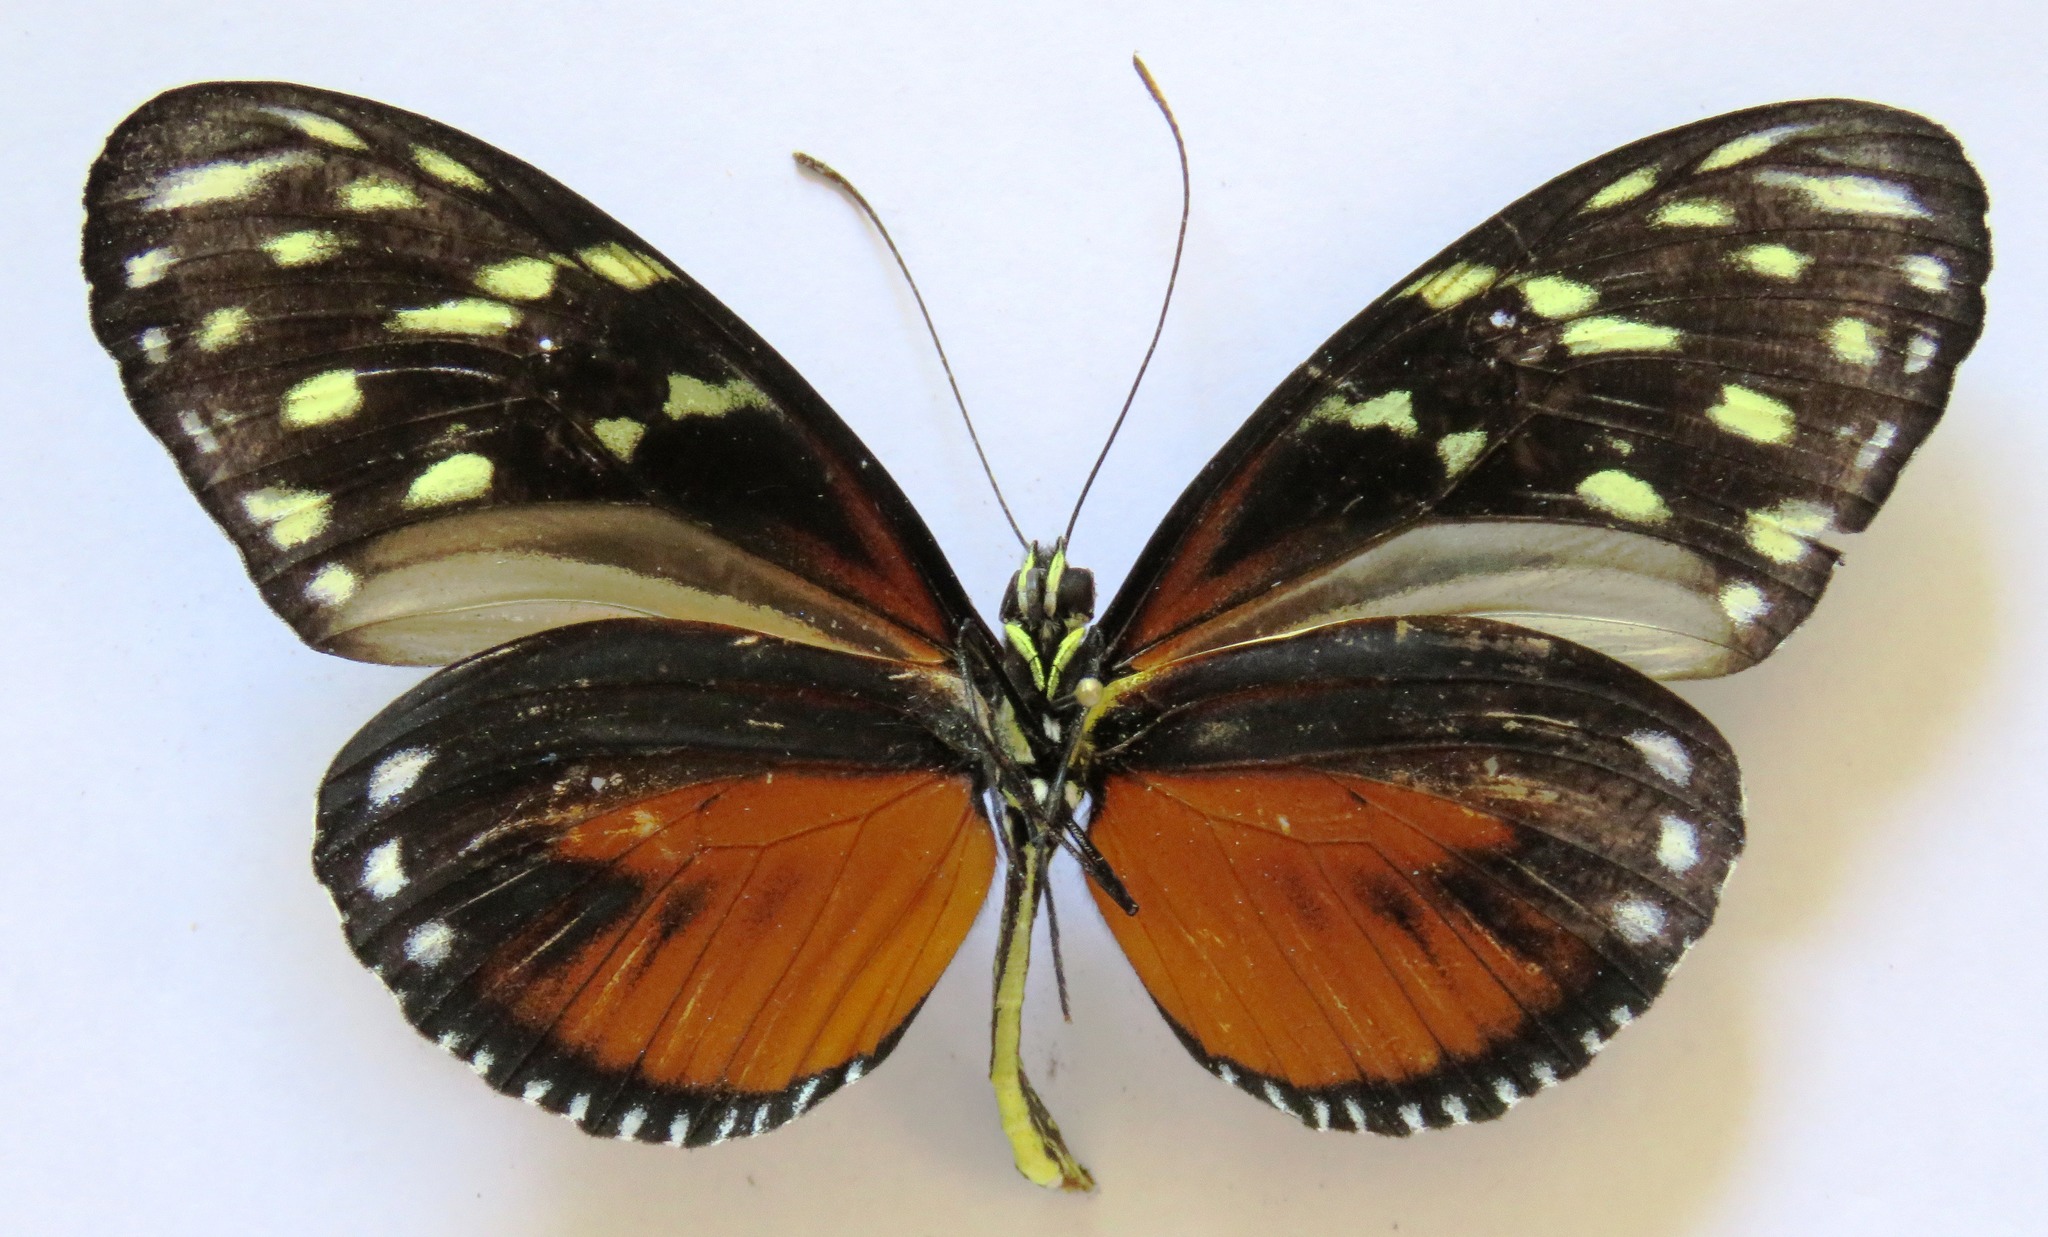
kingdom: Animalia
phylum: Arthropoda
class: Insecta
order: Lepidoptera
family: Nymphalidae
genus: Heliconius
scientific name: Heliconius hecale
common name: Tiger longwing
